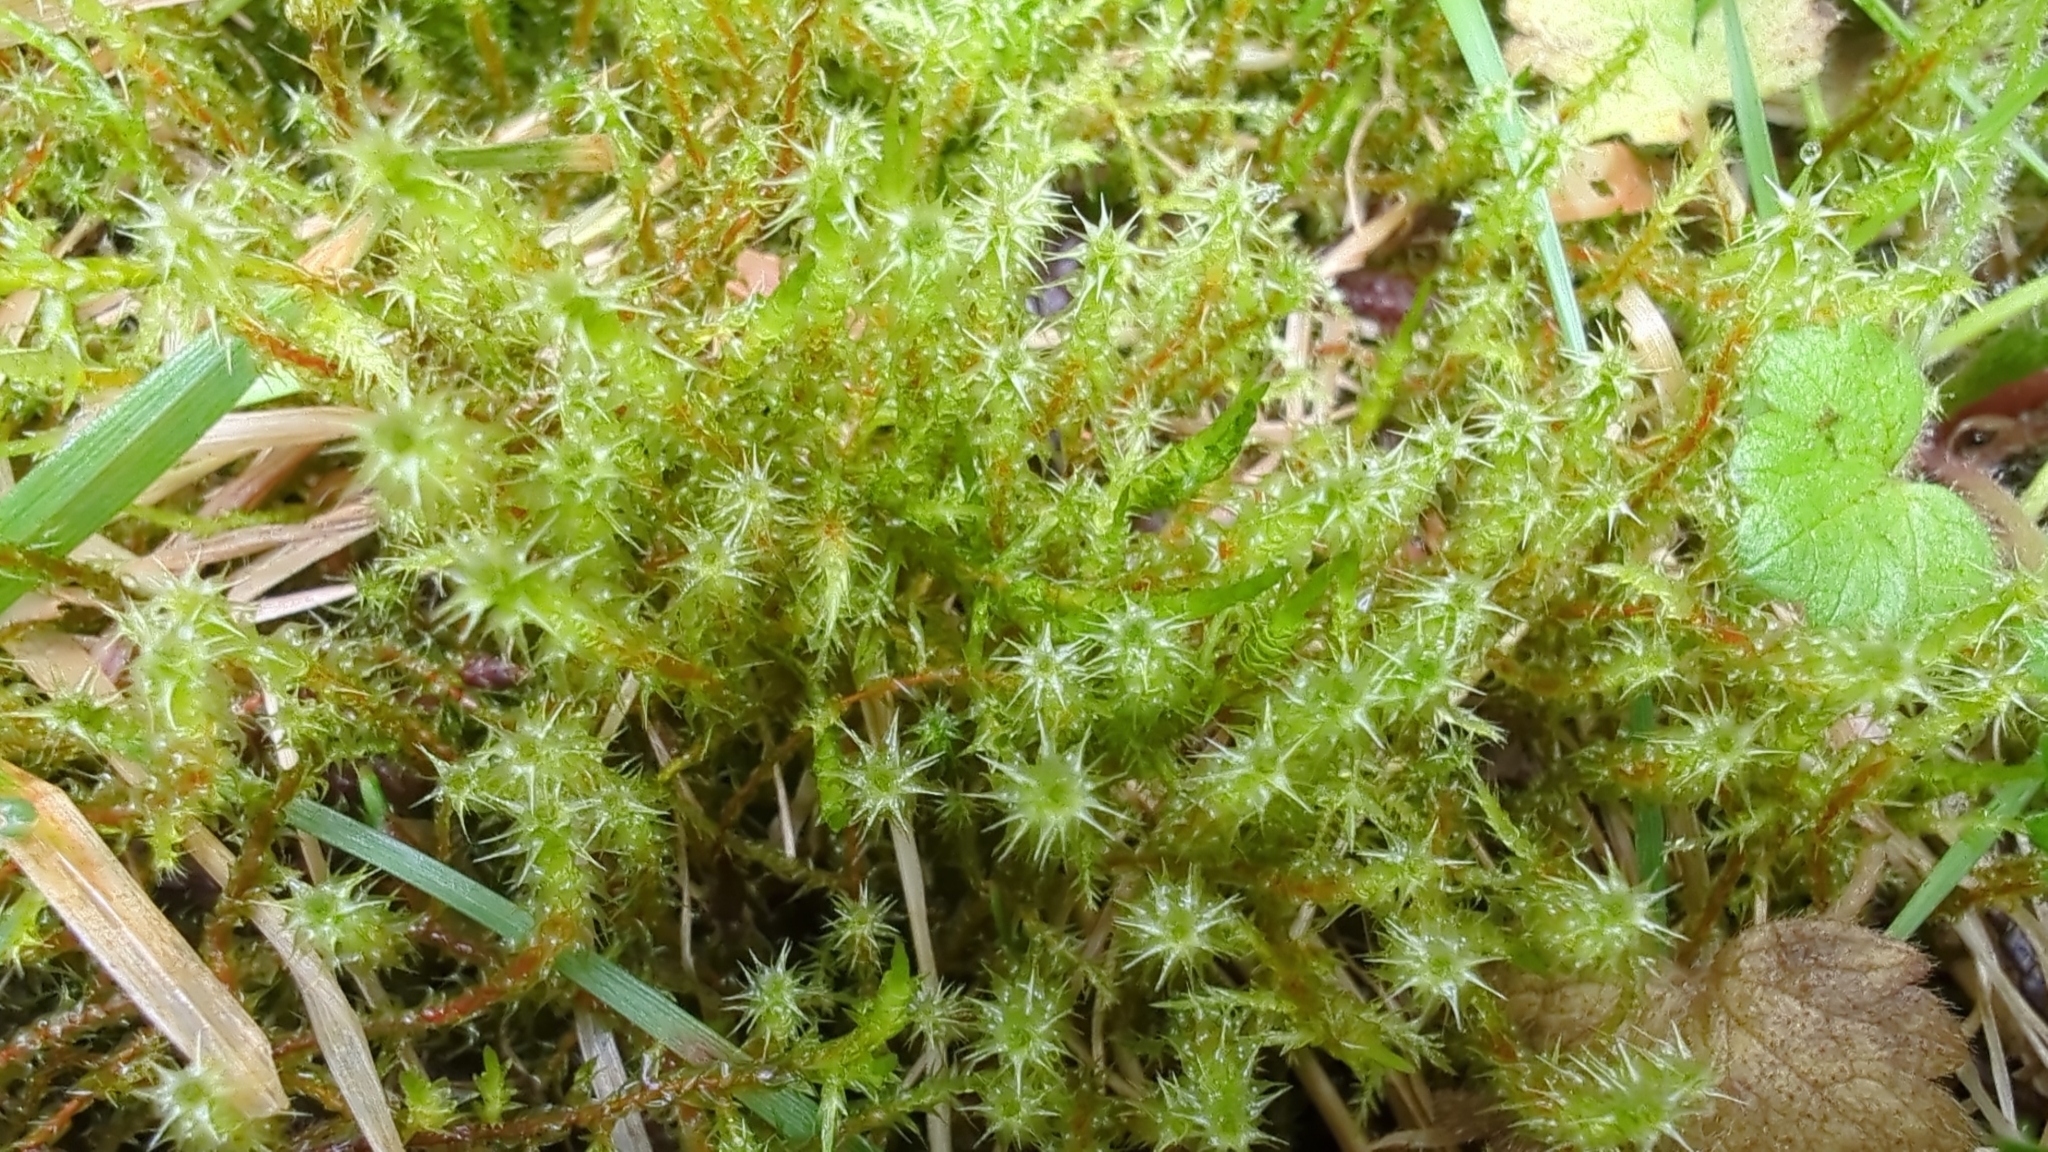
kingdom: Plantae
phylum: Bryophyta
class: Bryopsida
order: Hypnales
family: Hylocomiaceae
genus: Rhytidiadelphus
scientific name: Rhytidiadelphus squarrosus
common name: Springy turf-moss
